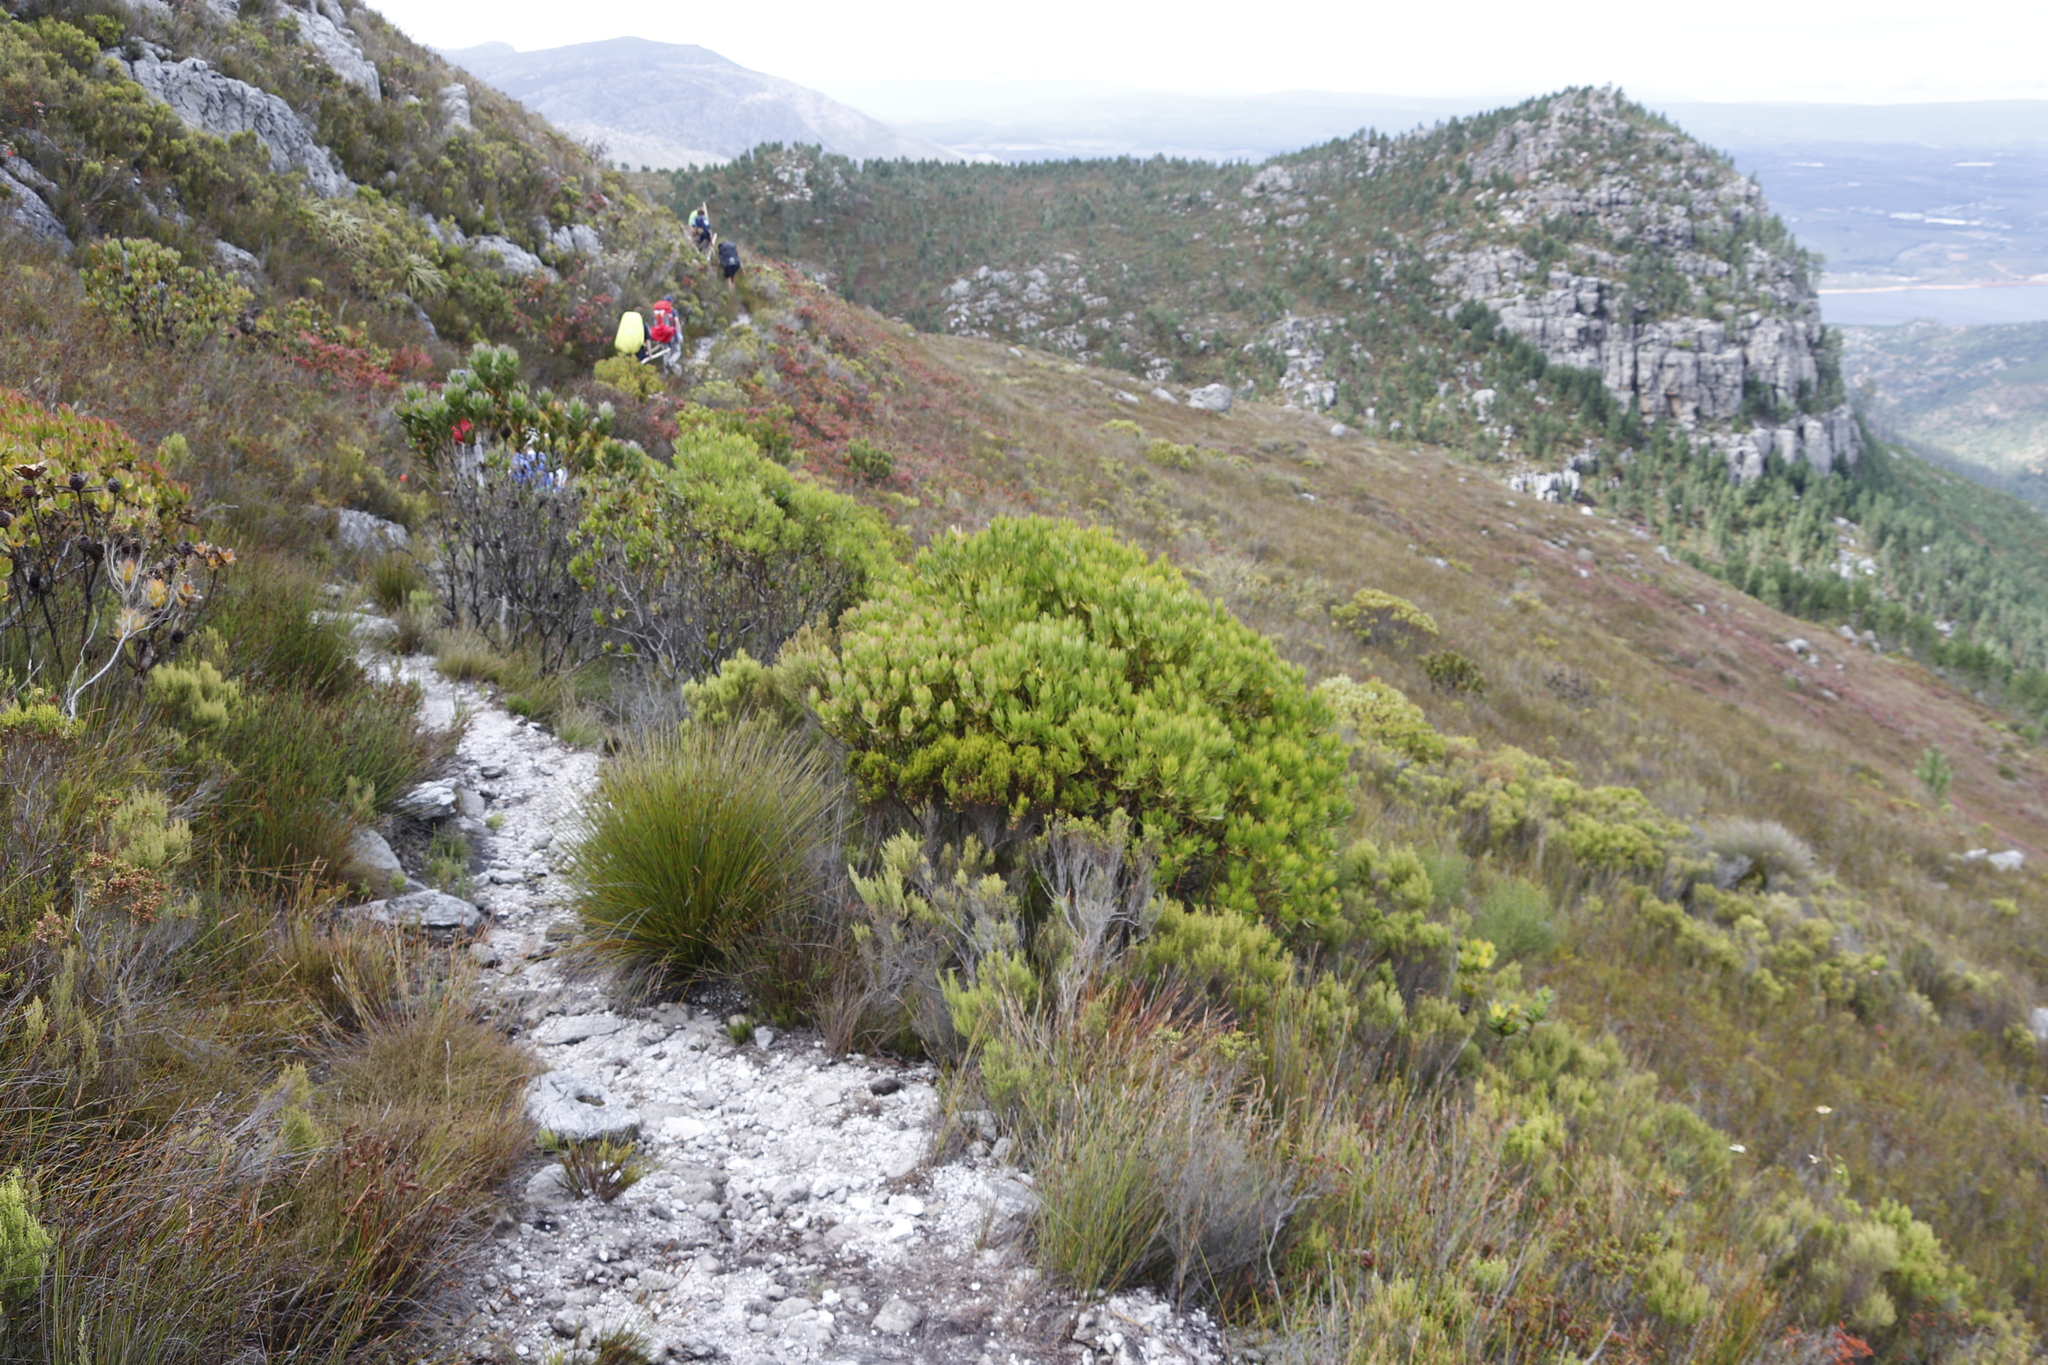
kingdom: Plantae
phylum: Tracheophyta
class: Magnoliopsida
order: Proteales
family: Proteaceae
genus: Leucadendron
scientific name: Leucadendron gandogeri
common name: Broad-leaf conebush
